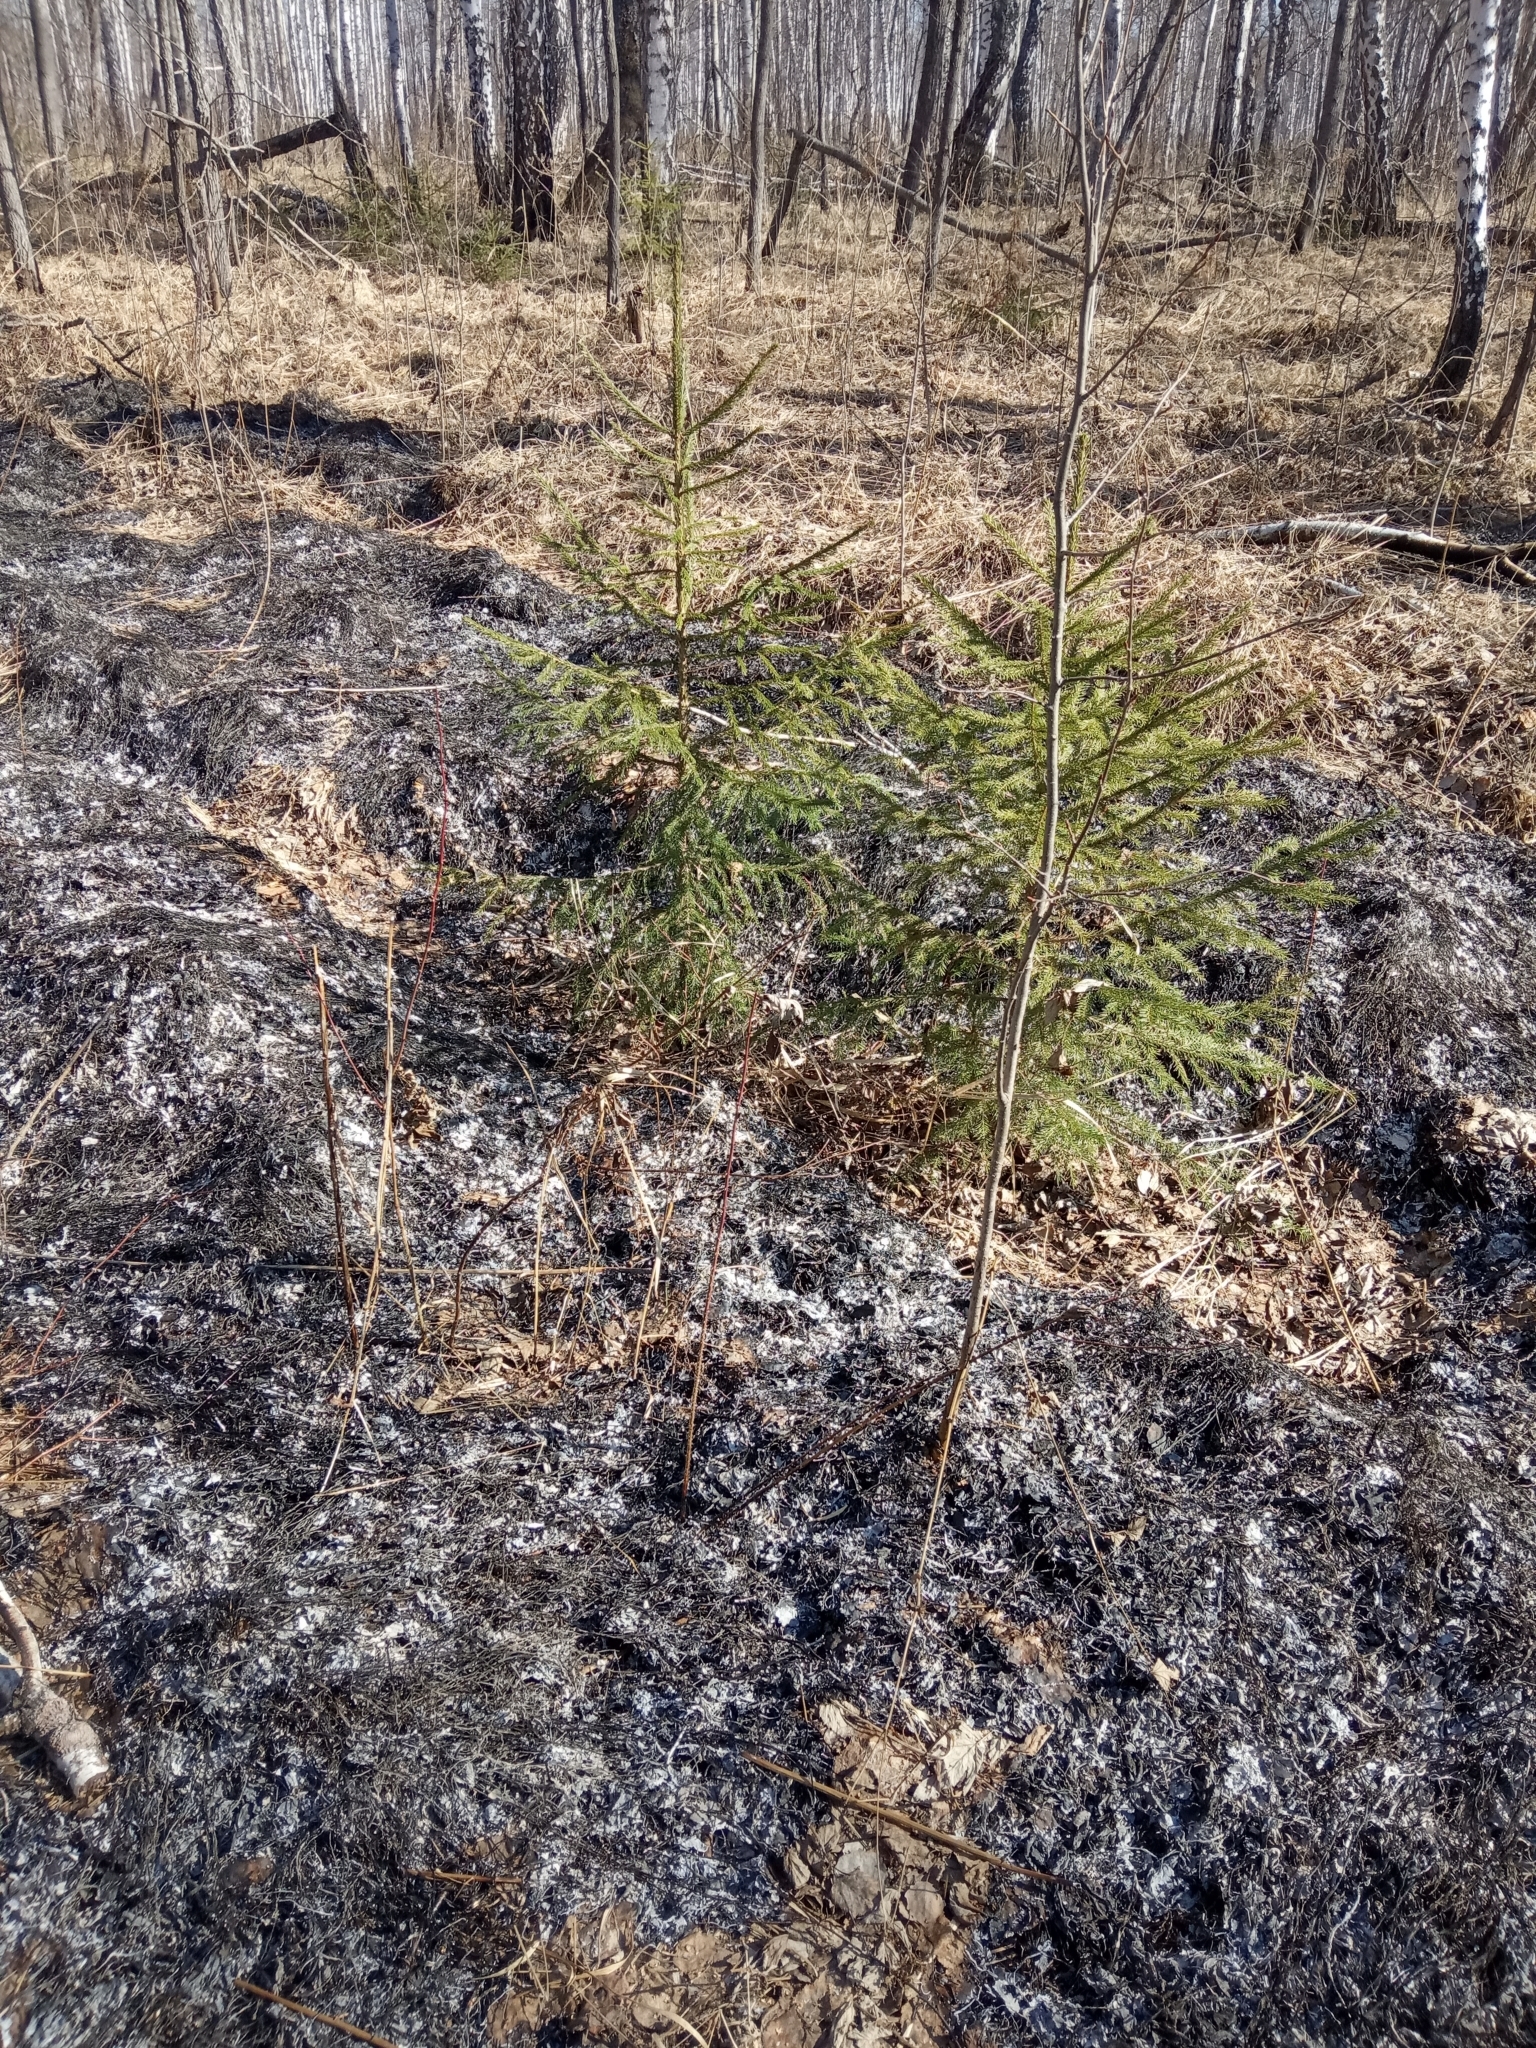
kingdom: Plantae
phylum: Tracheophyta
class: Pinopsida
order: Pinales
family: Pinaceae
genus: Picea
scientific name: Picea obovata
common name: Siberian spruce
